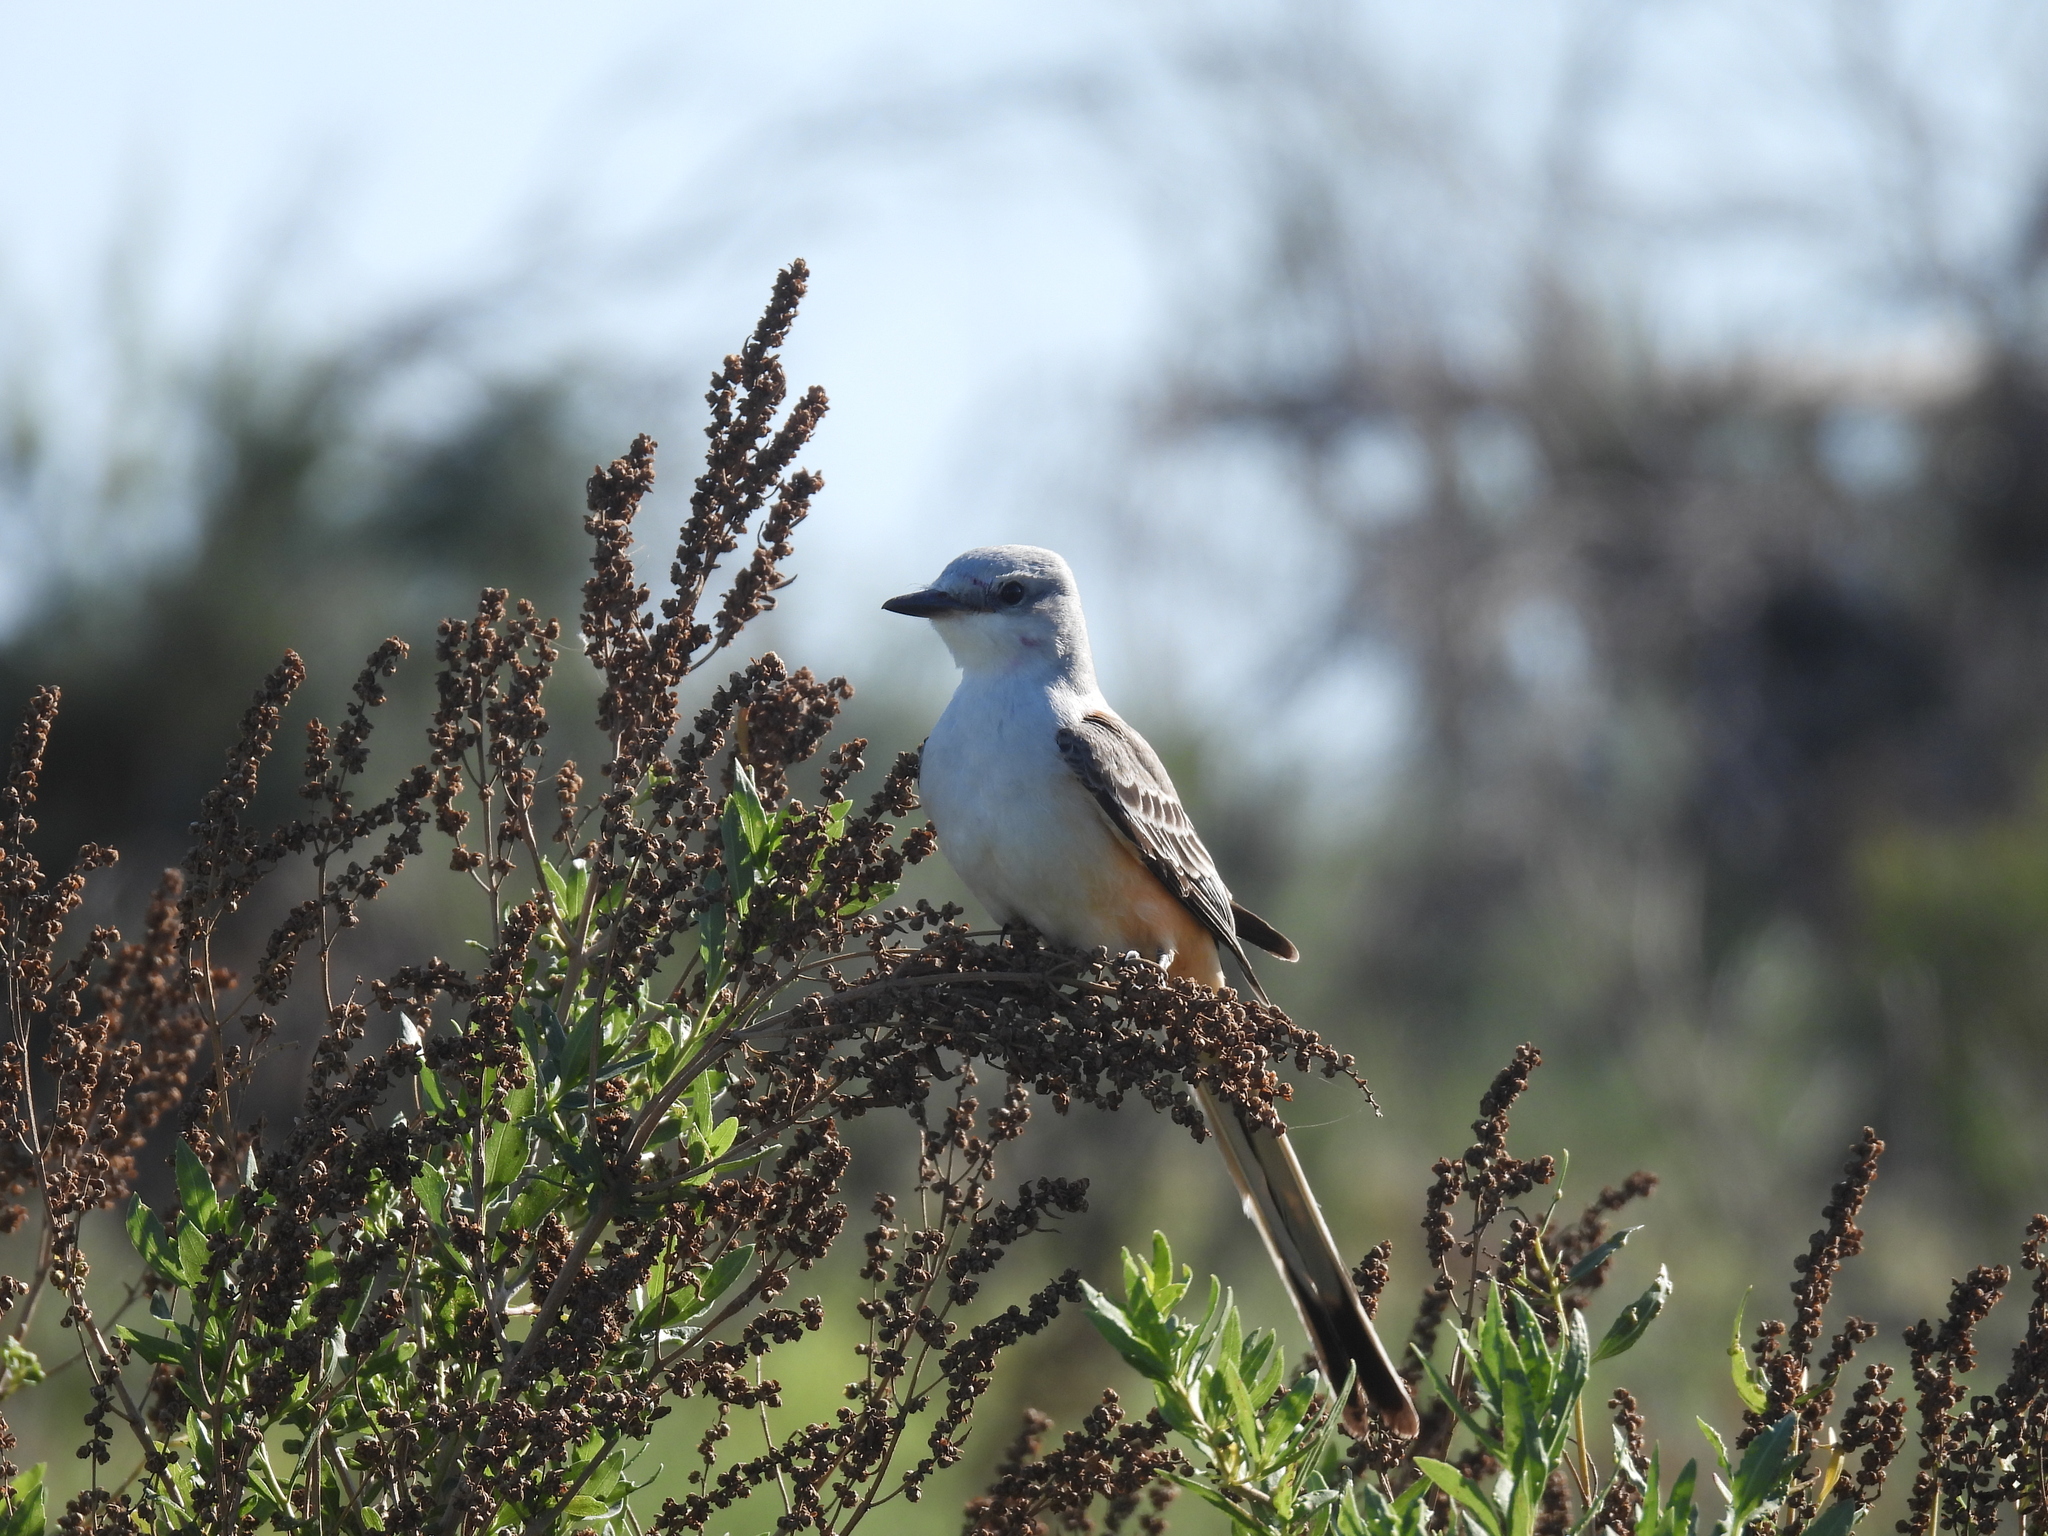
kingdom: Animalia
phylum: Chordata
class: Aves
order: Passeriformes
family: Tyrannidae
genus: Tyrannus
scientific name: Tyrannus forficatus
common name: Scissor-tailed flycatcher
